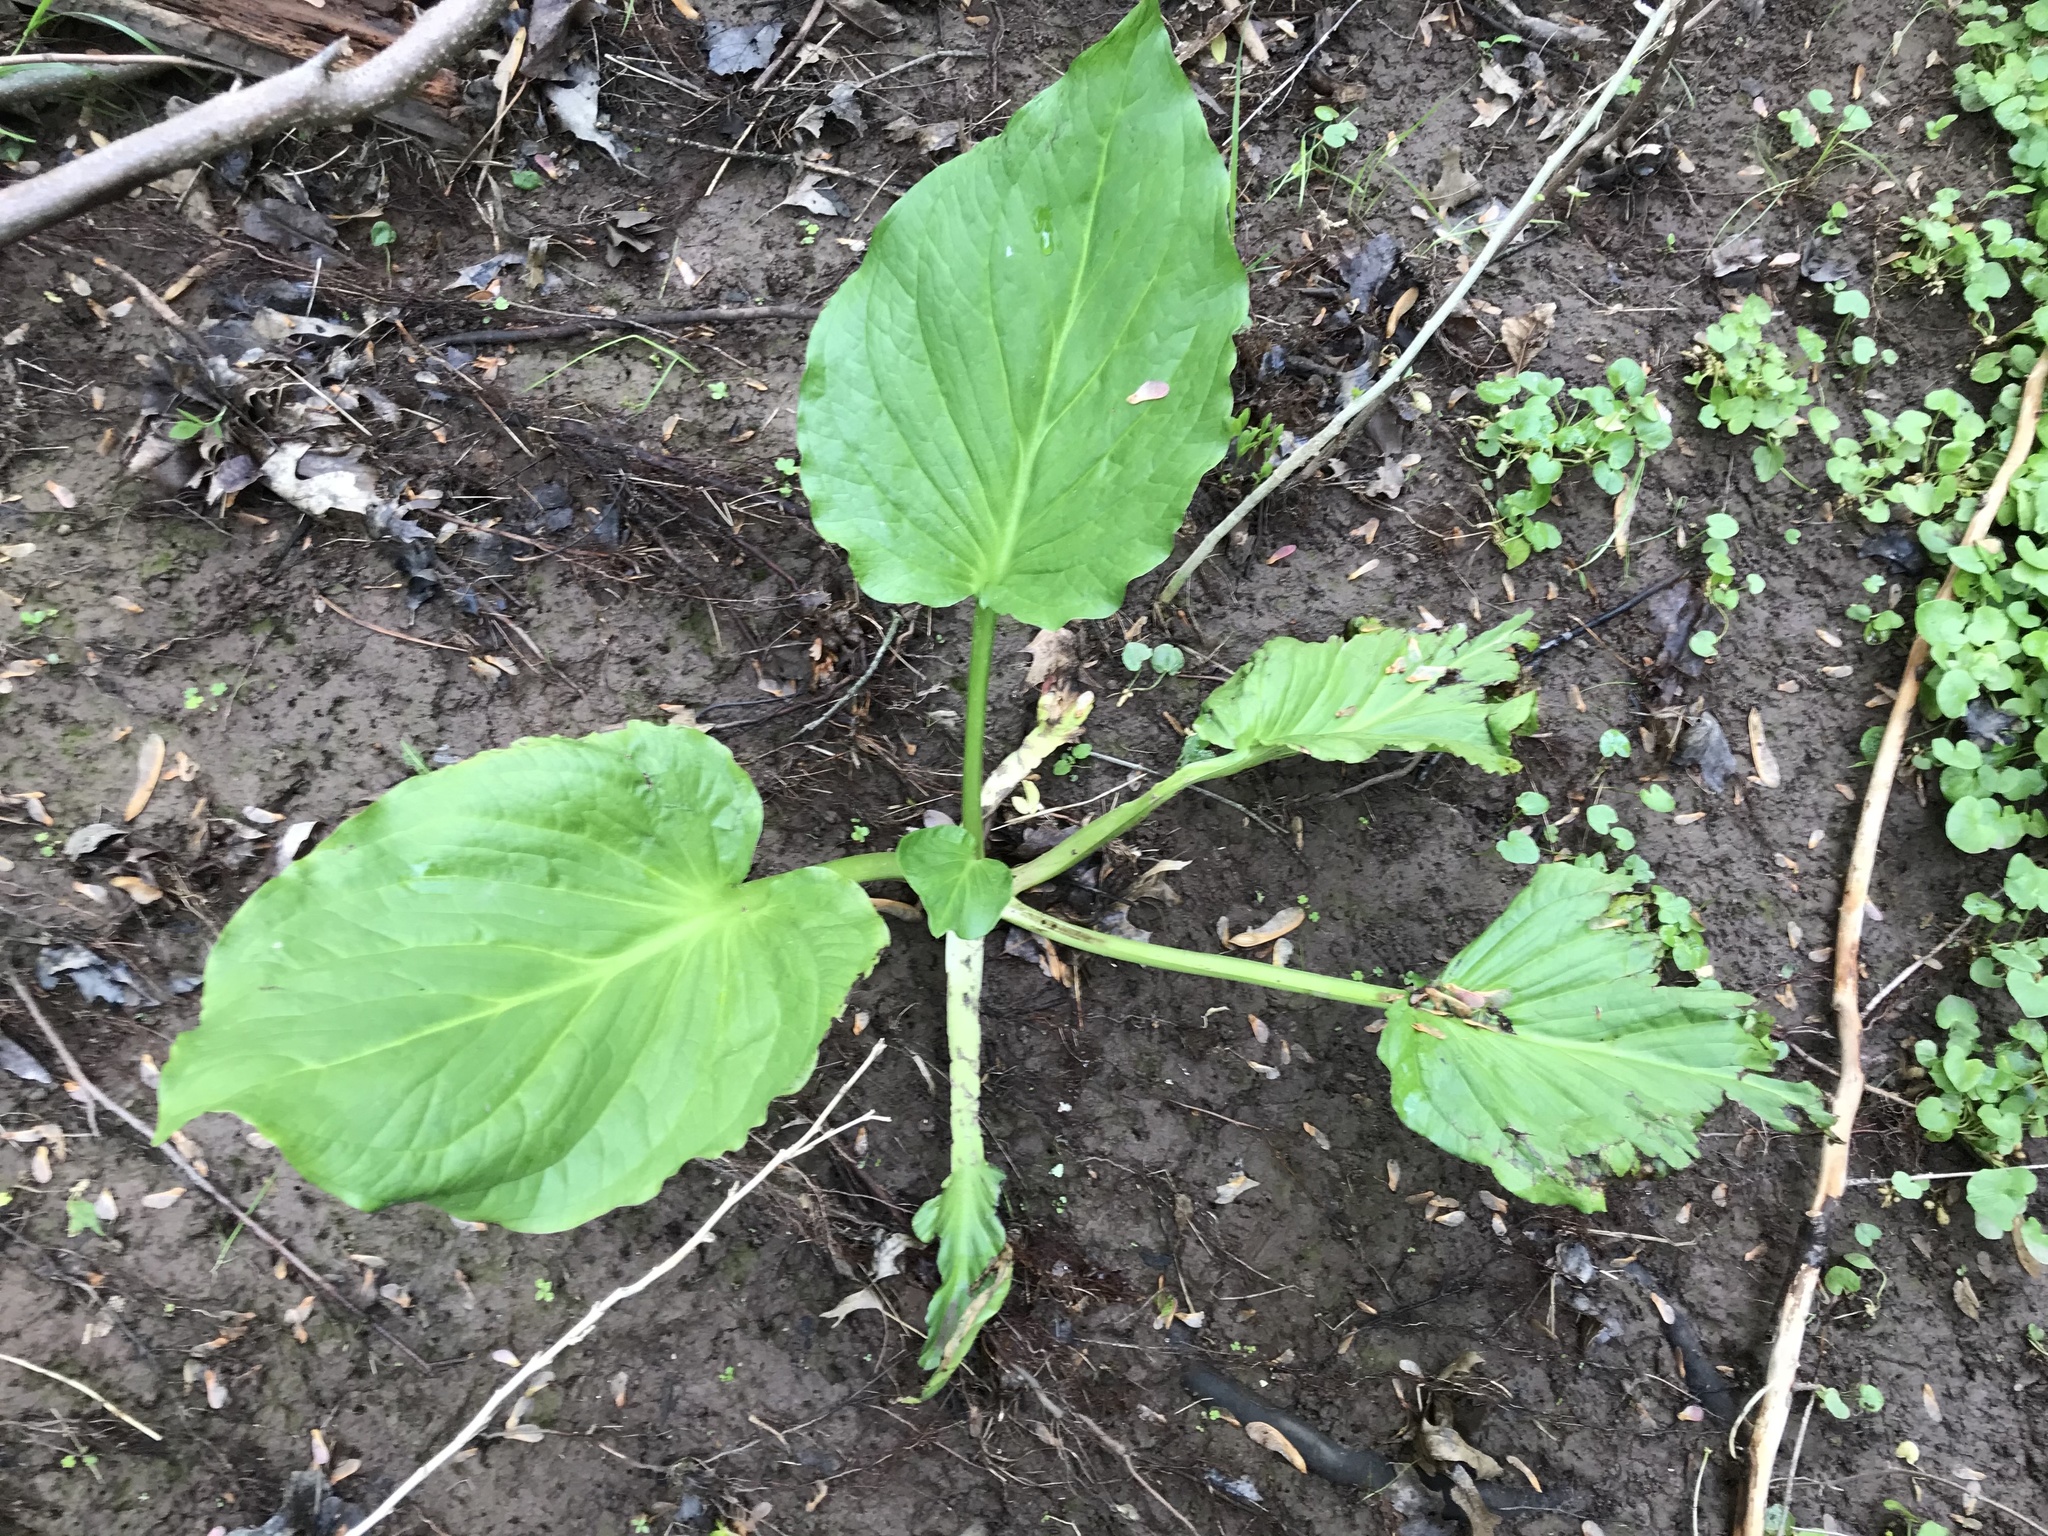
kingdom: Plantae
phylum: Tracheophyta
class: Liliopsida
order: Alismatales
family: Araceae
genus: Symplocarpus
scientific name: Symplocarpus foetidus
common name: Eastern skunk cabbage
